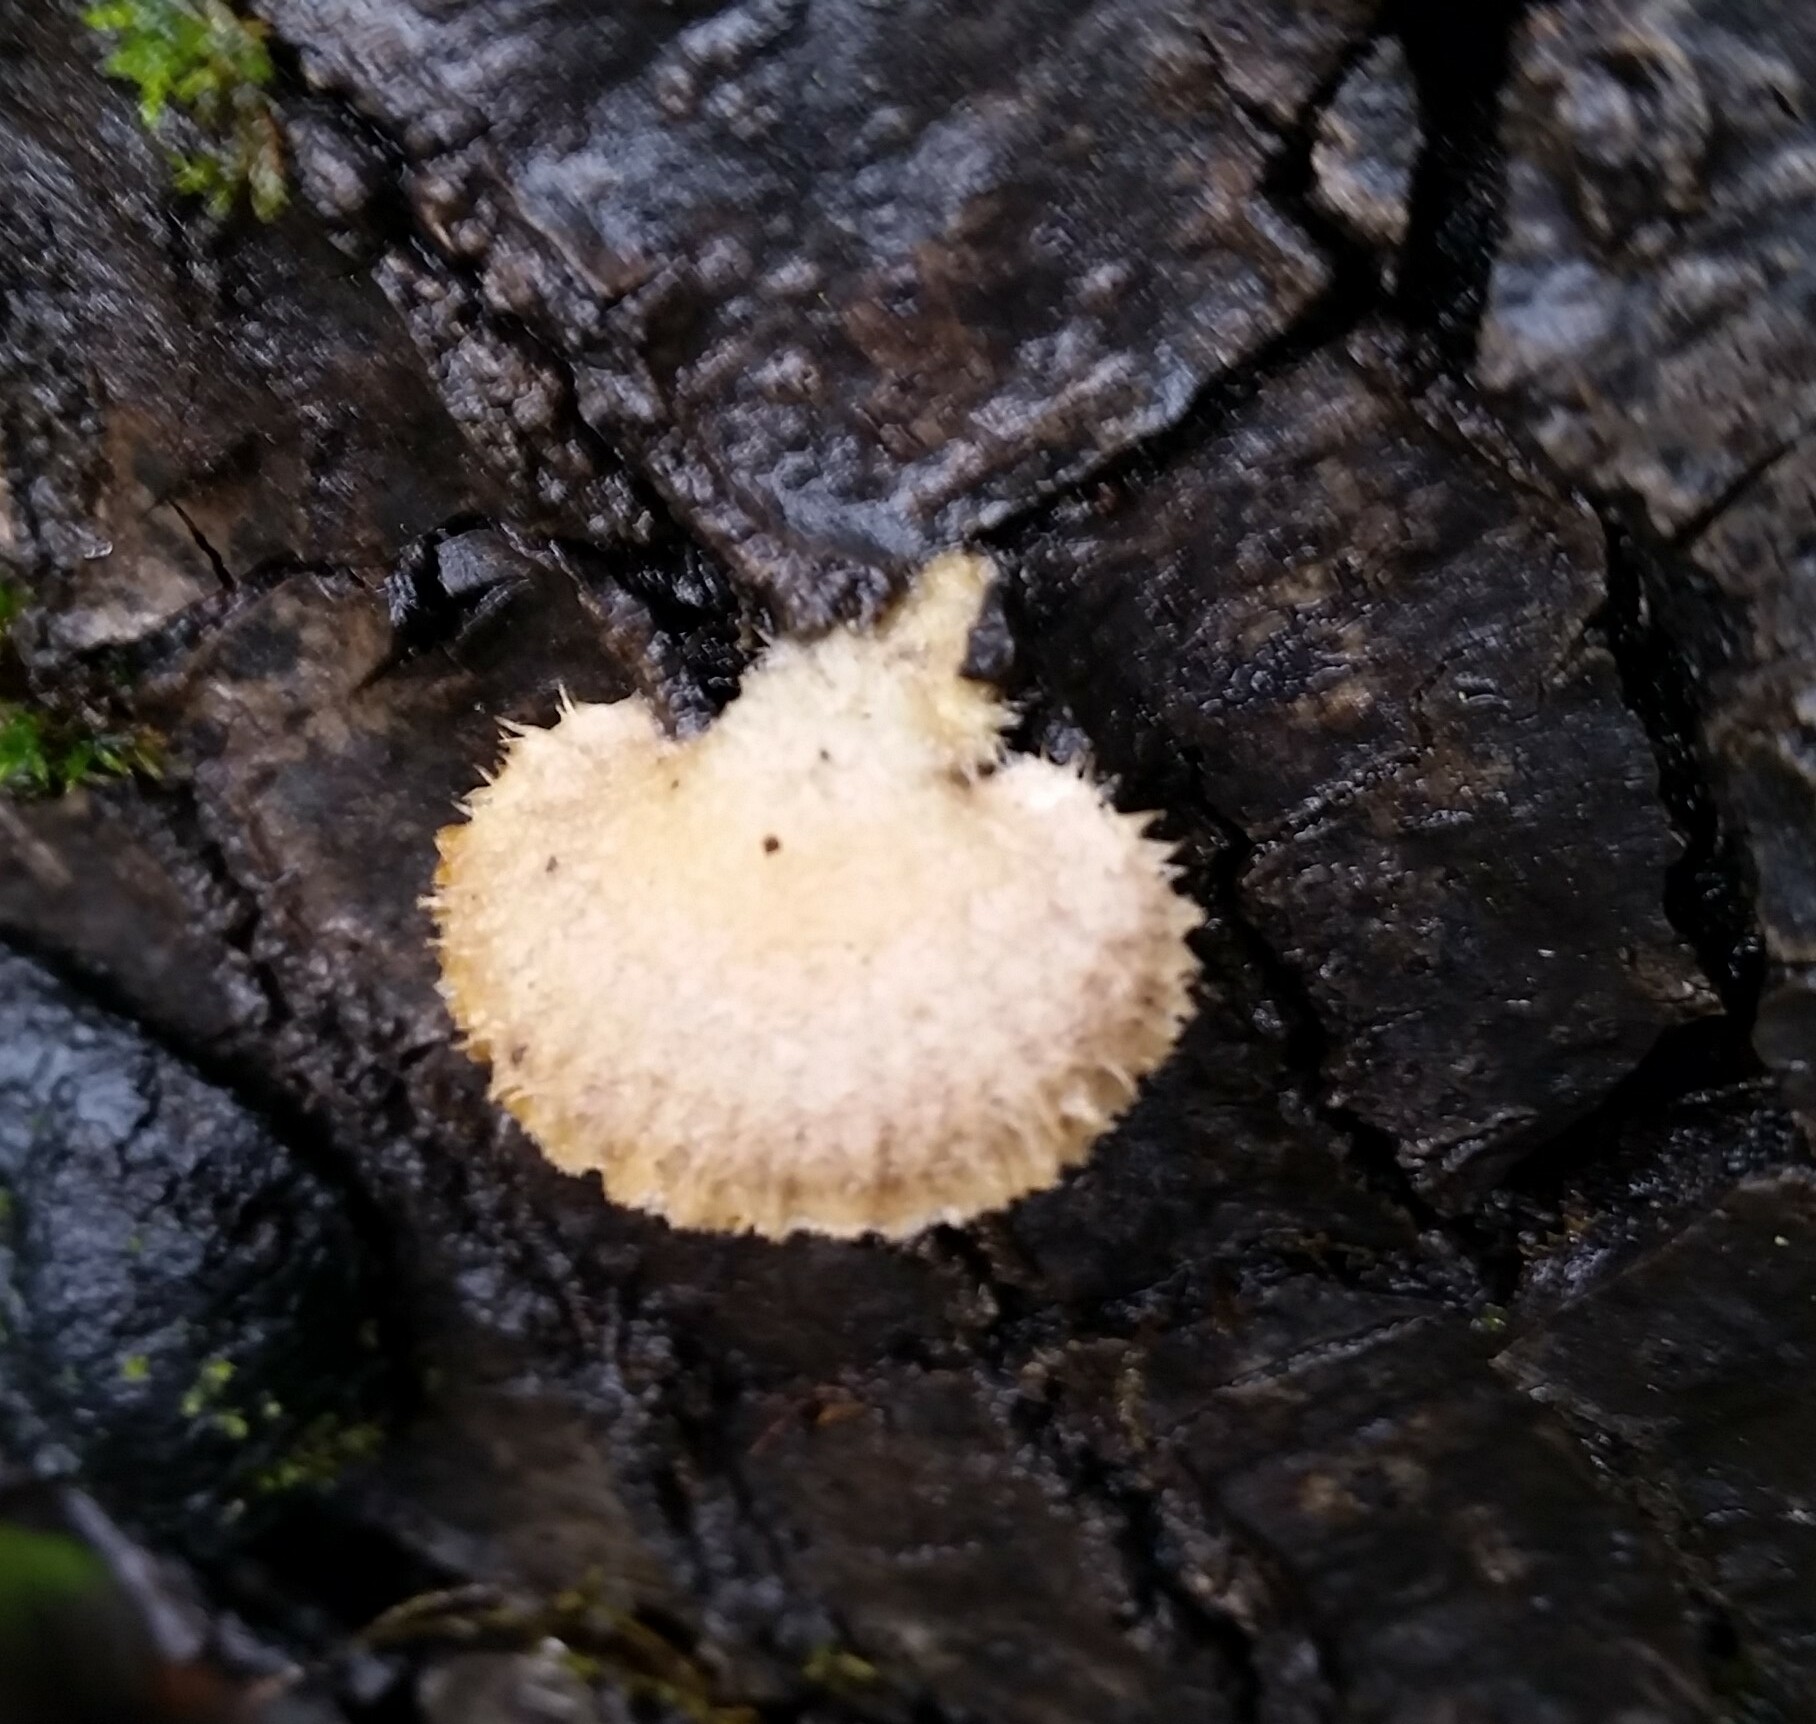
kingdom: Fungi
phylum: Basidiomycota
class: Agaricomycetes
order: Agaricales
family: Schizophyllaceae
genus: Schizophyllum
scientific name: Schizophyllum commune
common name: Common porecrust
